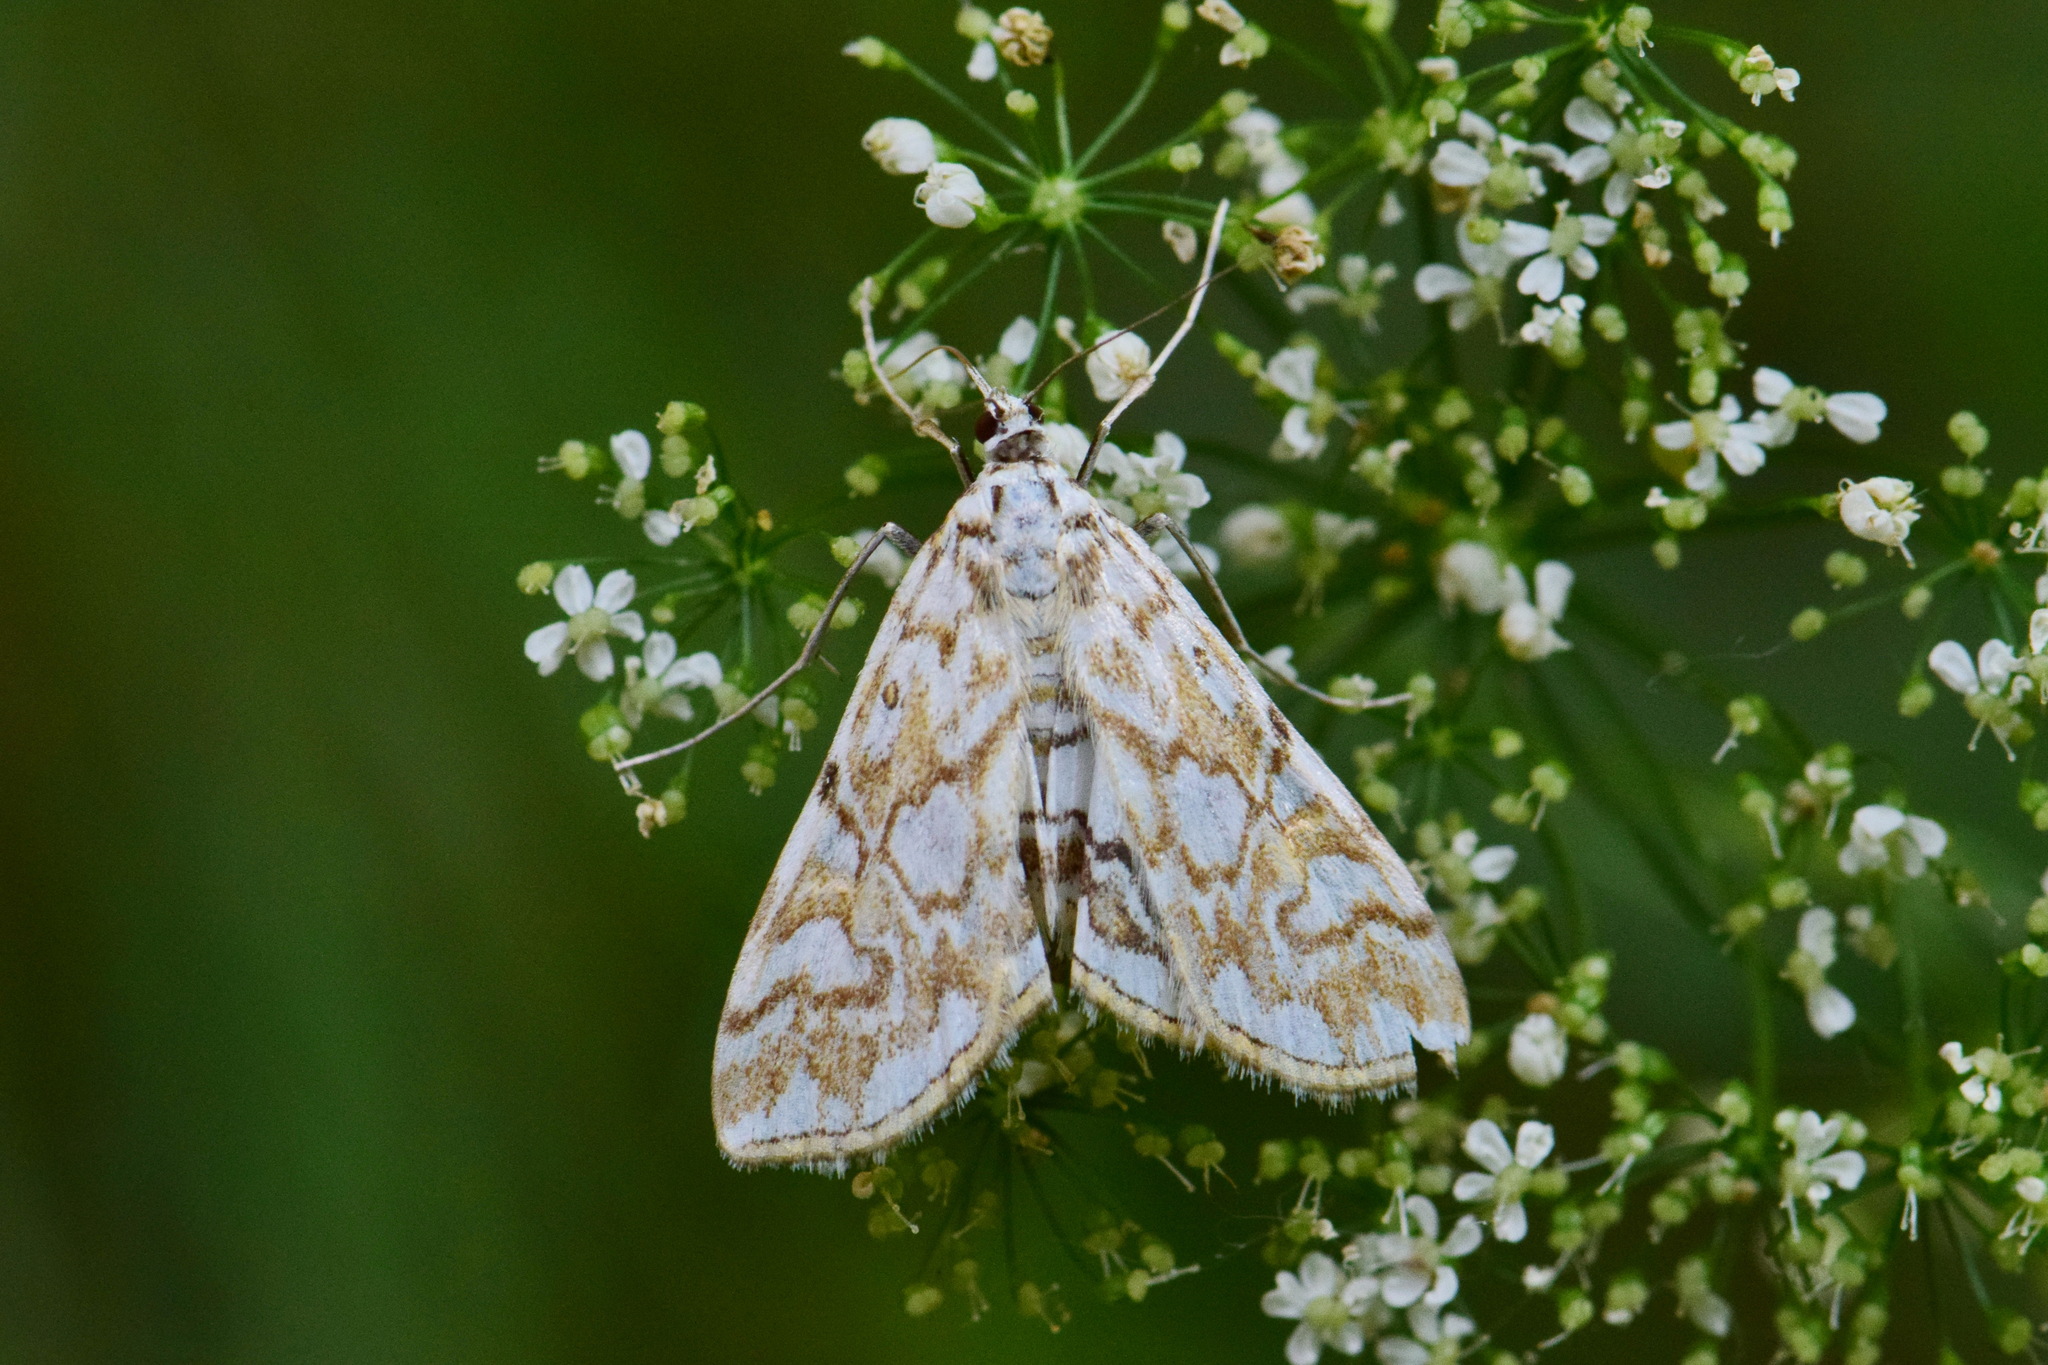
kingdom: Animalia
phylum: Arthropoda
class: Insecta
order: Lepidoptera
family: Crambidae
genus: Elophila
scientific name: Elophila nymphaeata
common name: Brown china-mark
